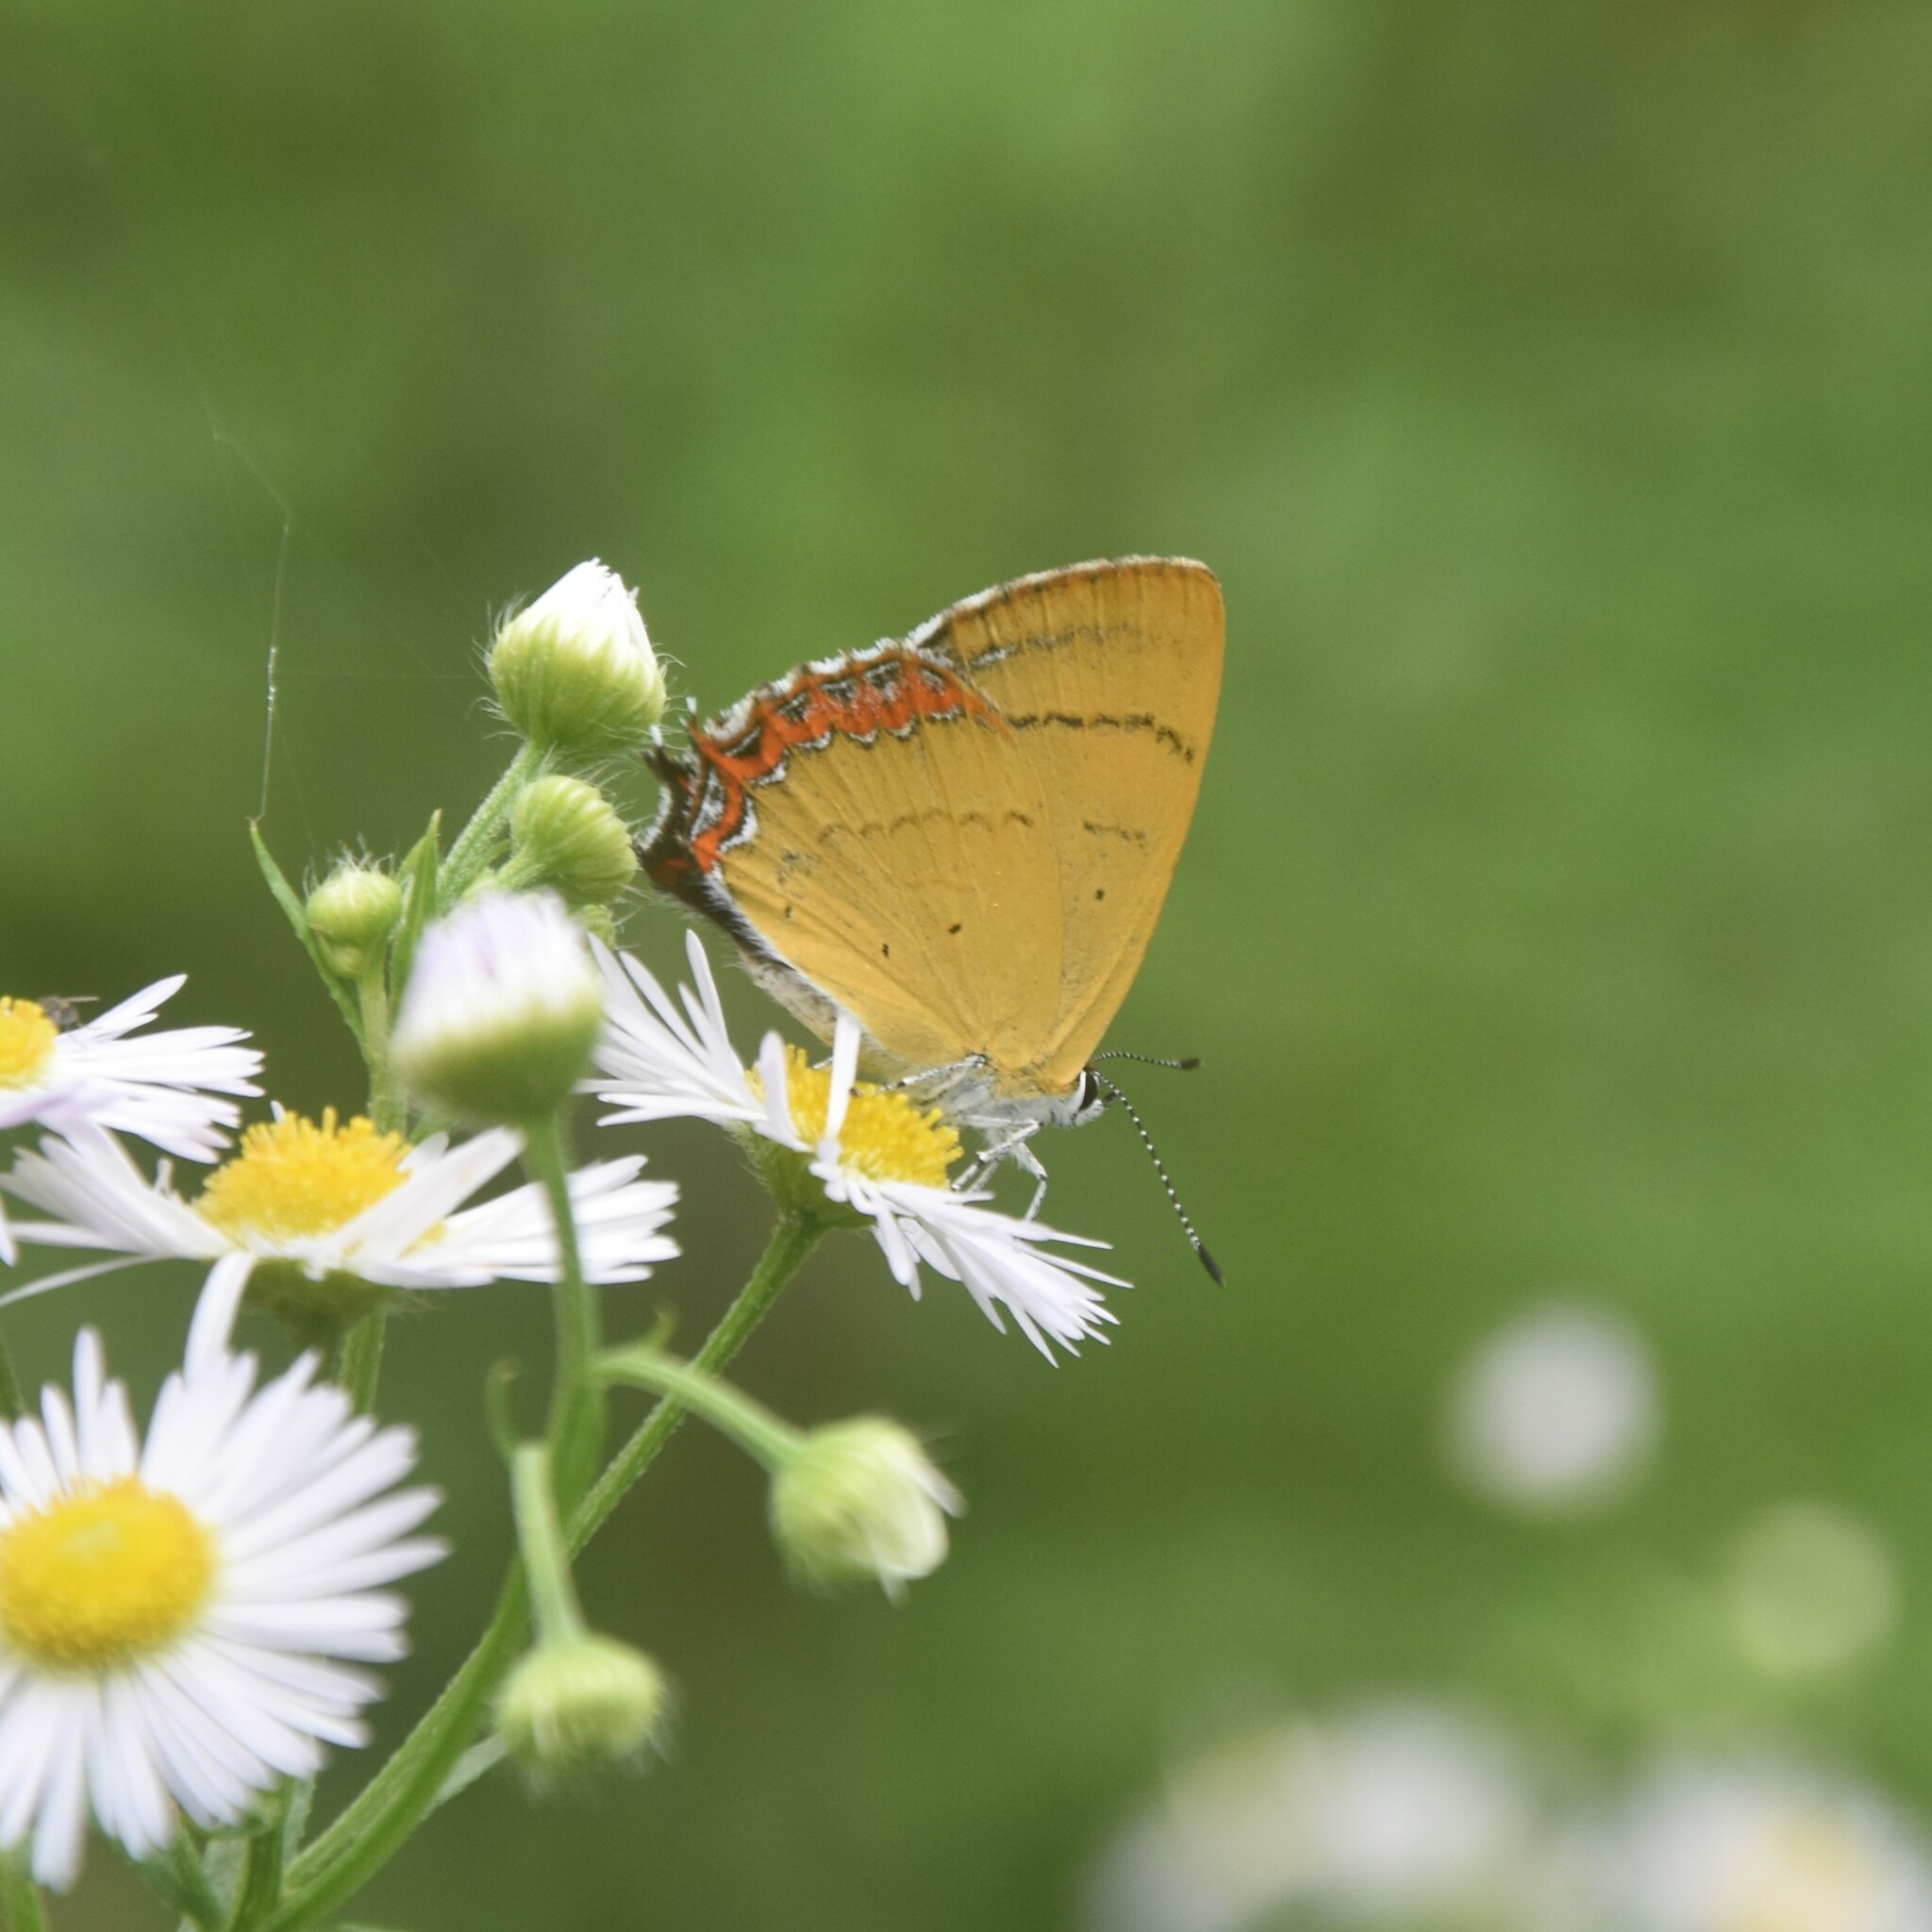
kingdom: Animalia
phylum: Arthropoda
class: Insecta
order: Lepidoptera
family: Lycaenidae
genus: Heliophorus
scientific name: Heliophorus
